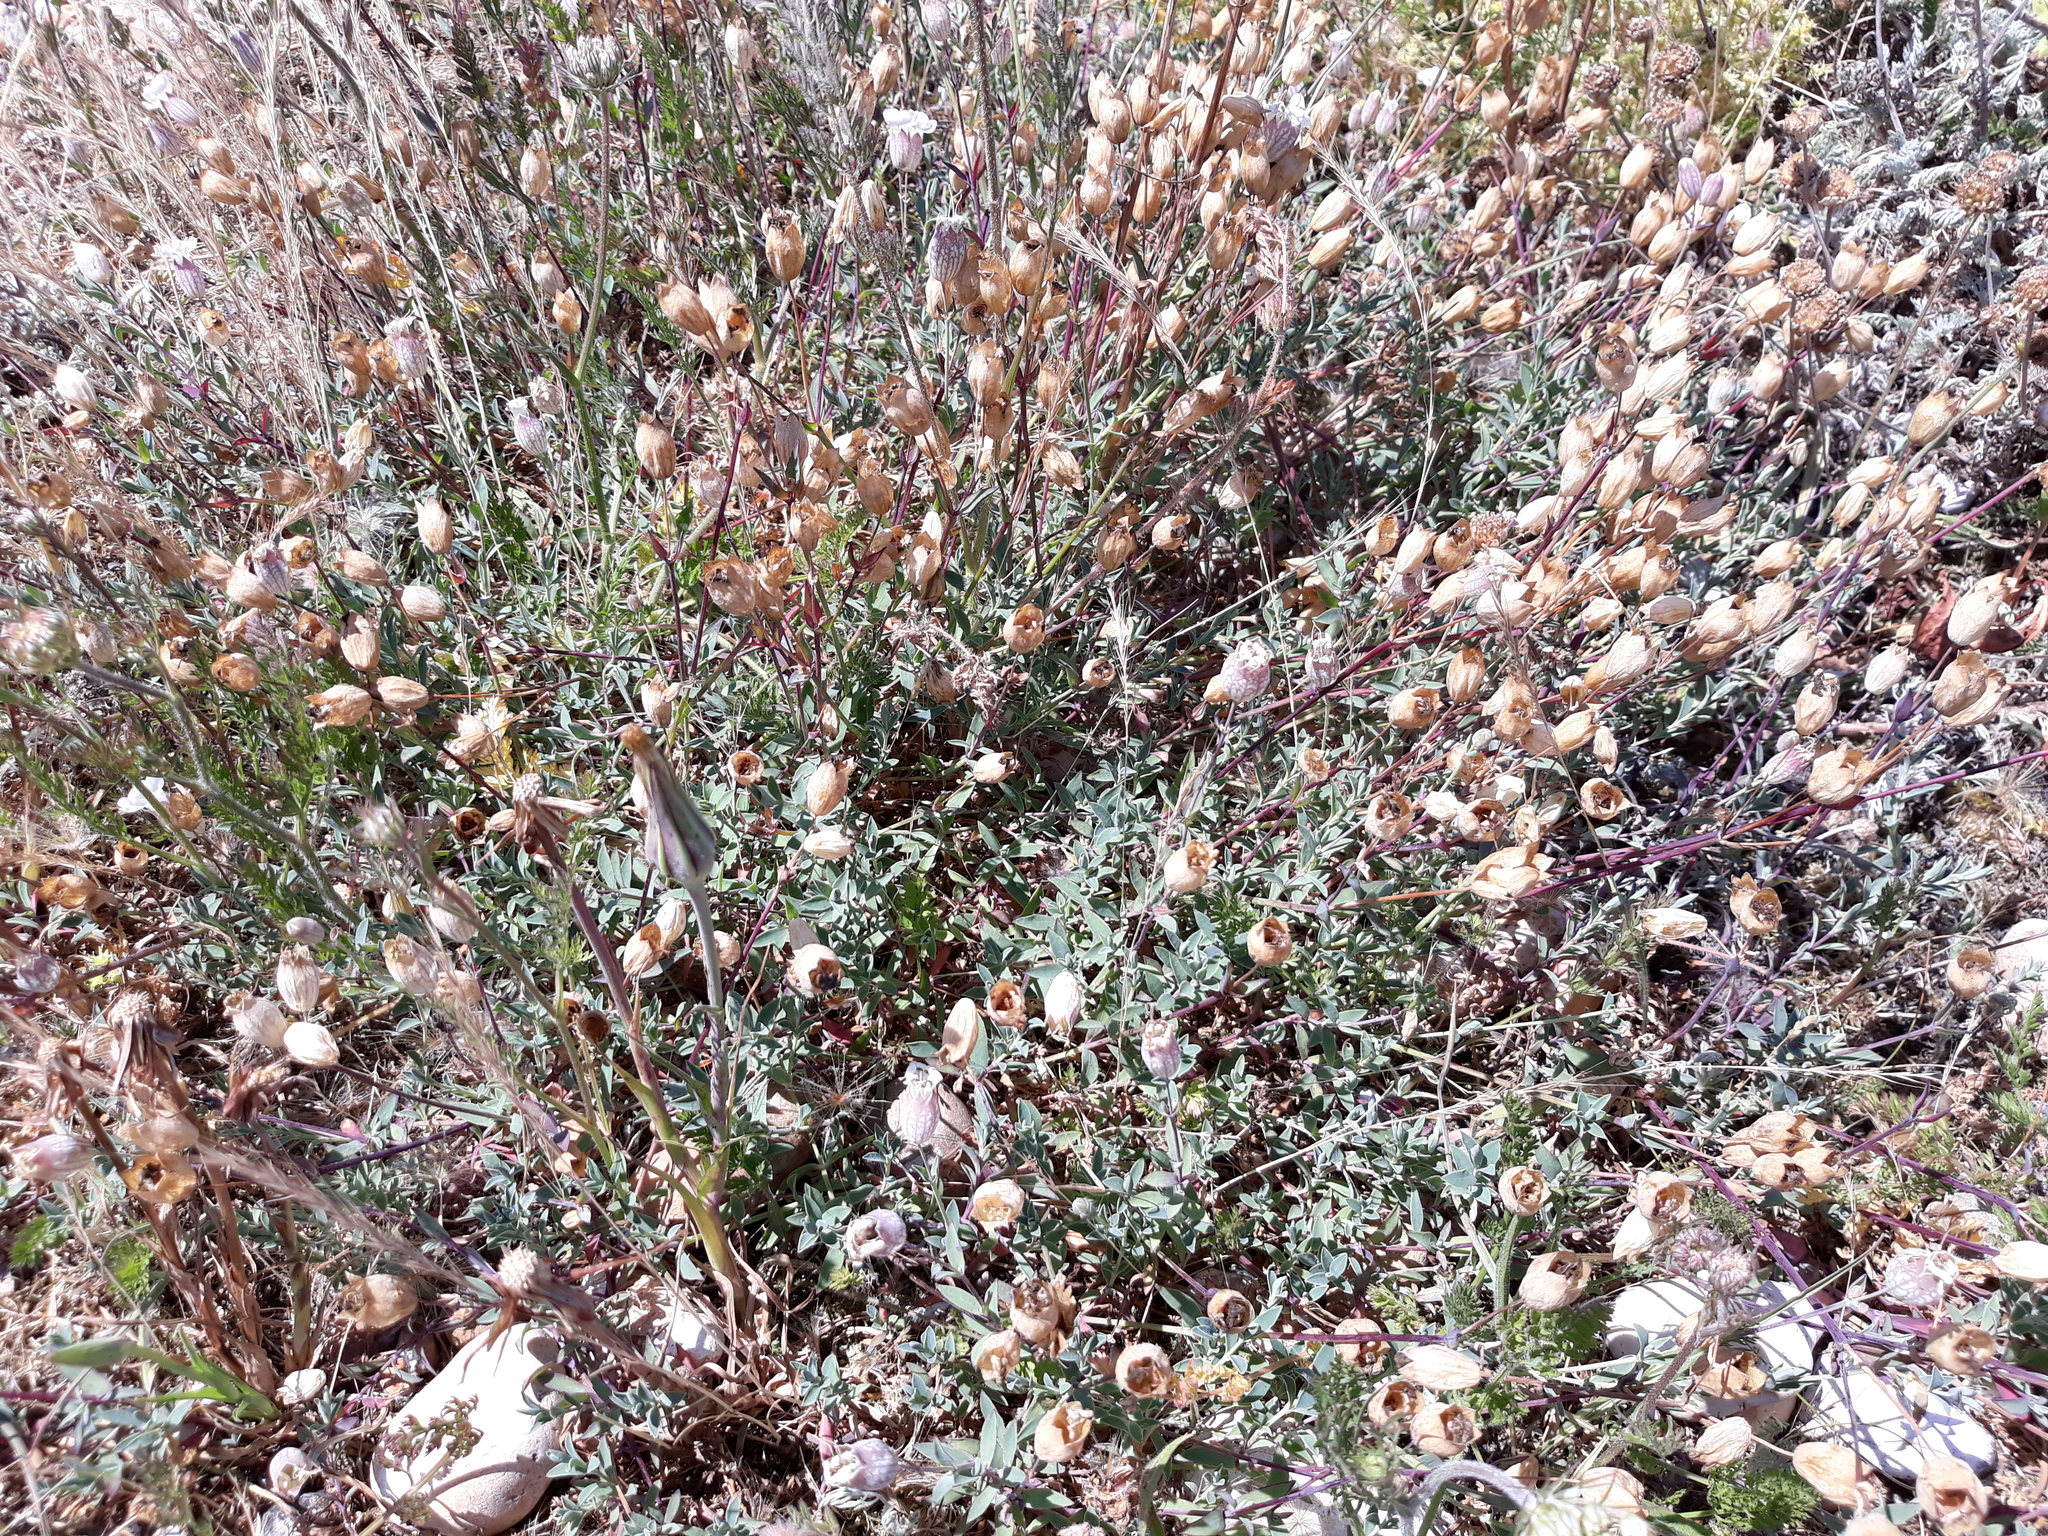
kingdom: Plantae
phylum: Tracheophyta
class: Magnoliopsida
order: Caryophyllales
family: Caryophyllaceae
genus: Silene
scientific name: Silene uniflora
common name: Sea campion
